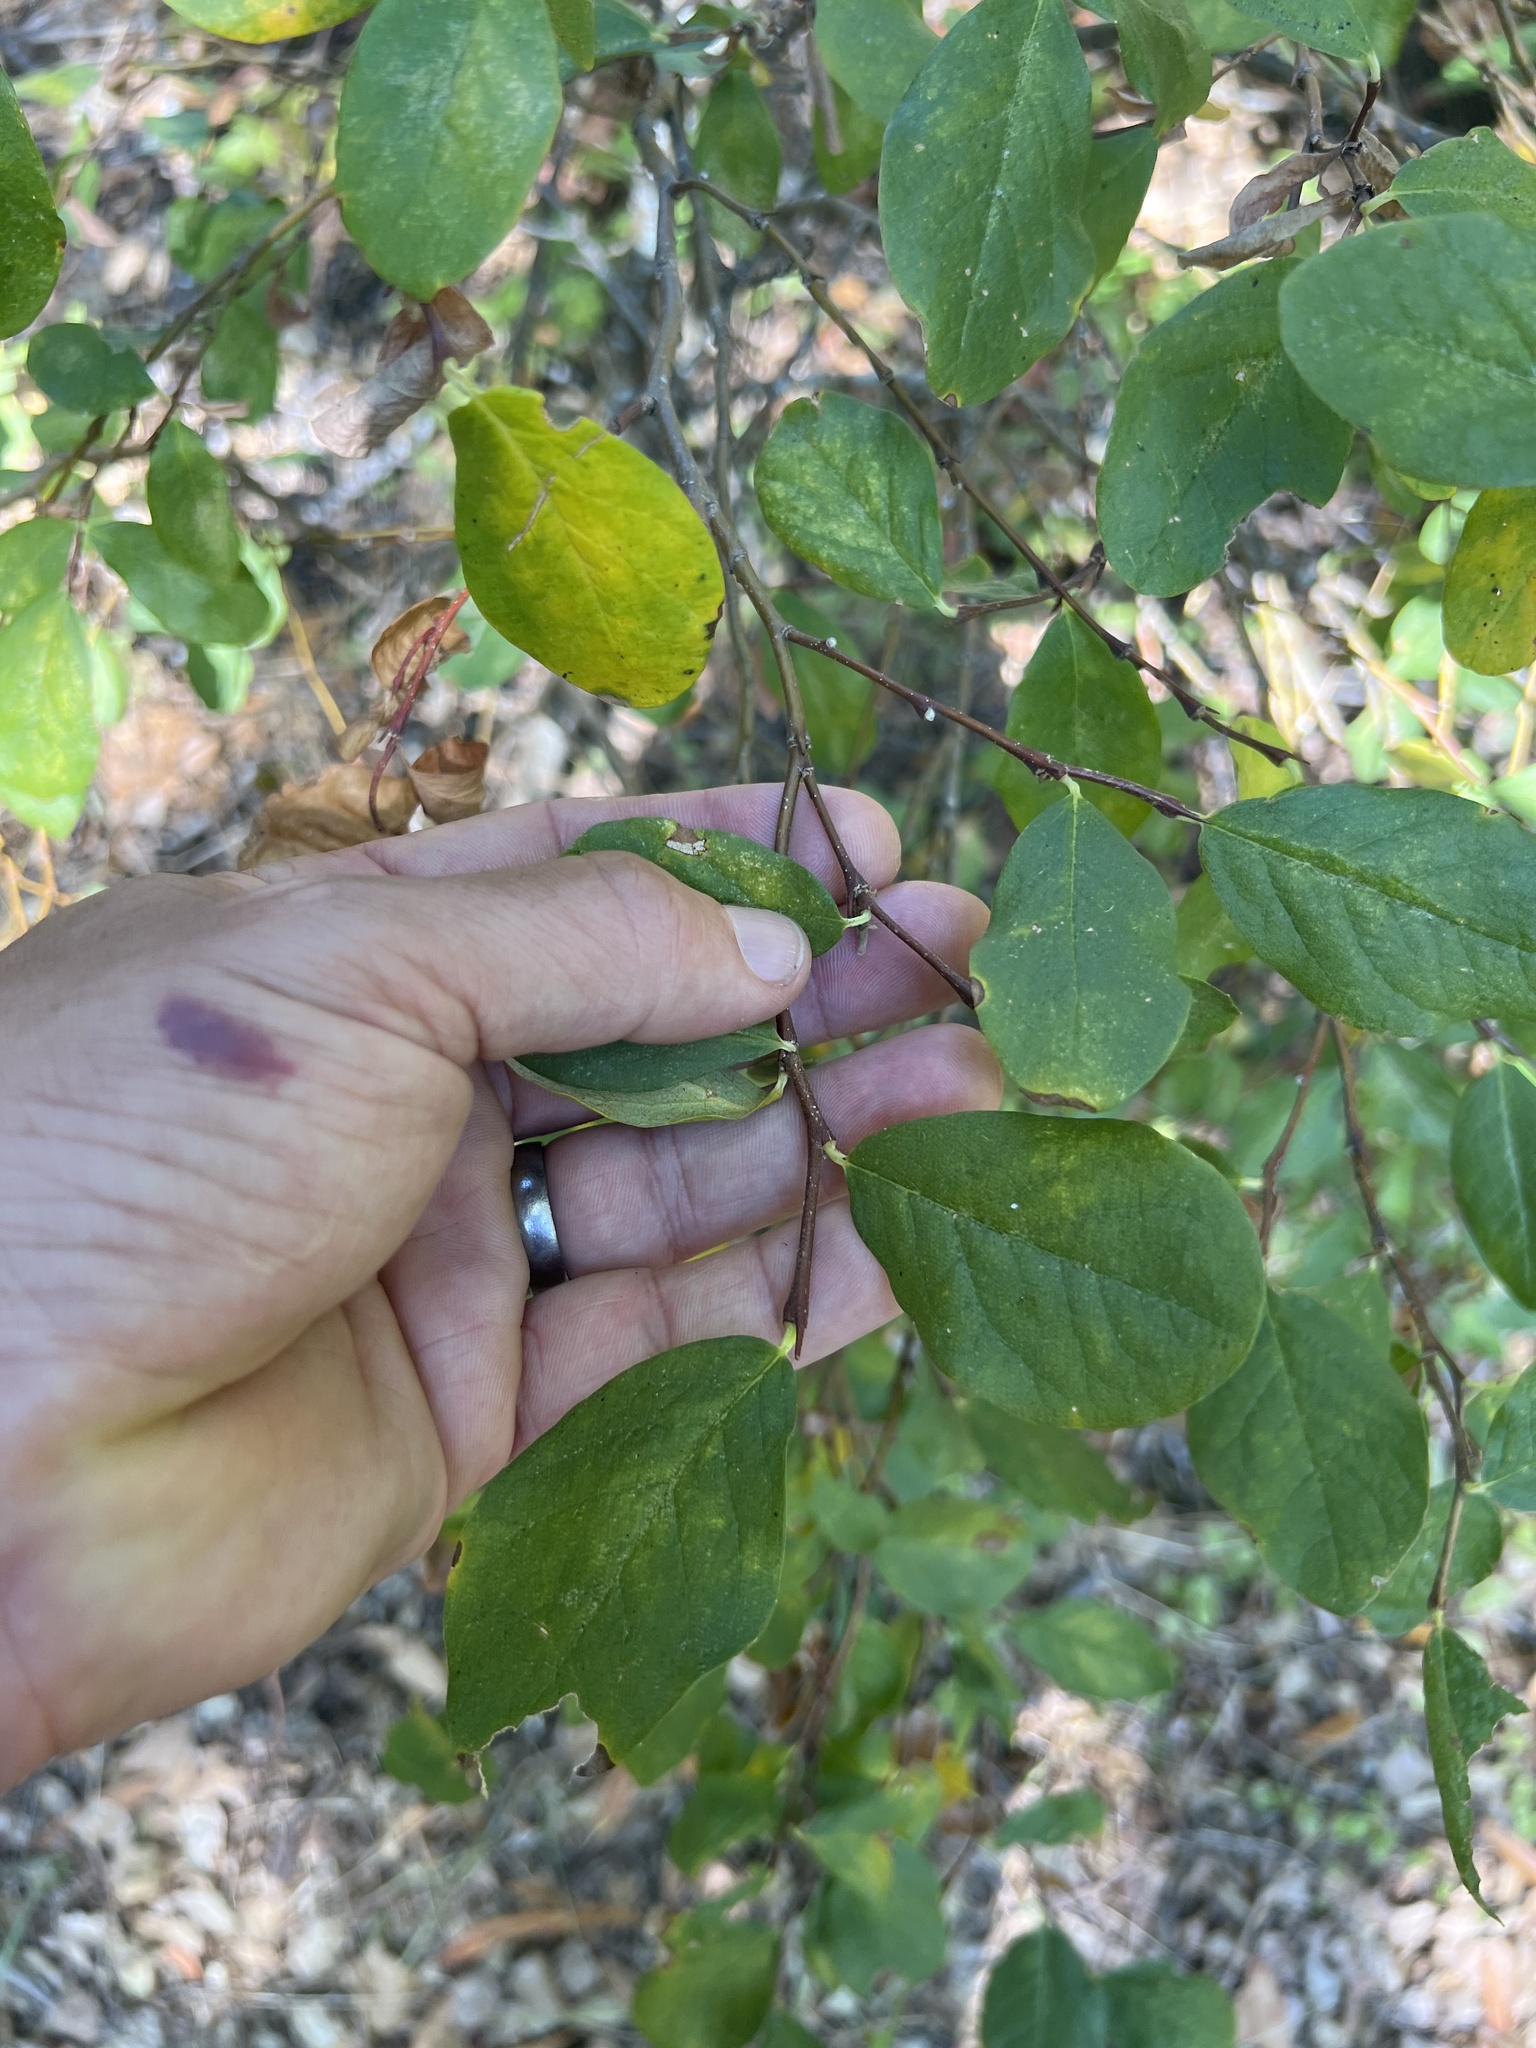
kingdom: Plantae
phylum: Tracheophyta
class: Magnoliopsida
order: Malvales
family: Thymelaeaceae
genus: Dirca
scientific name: Dirca occidentalis
